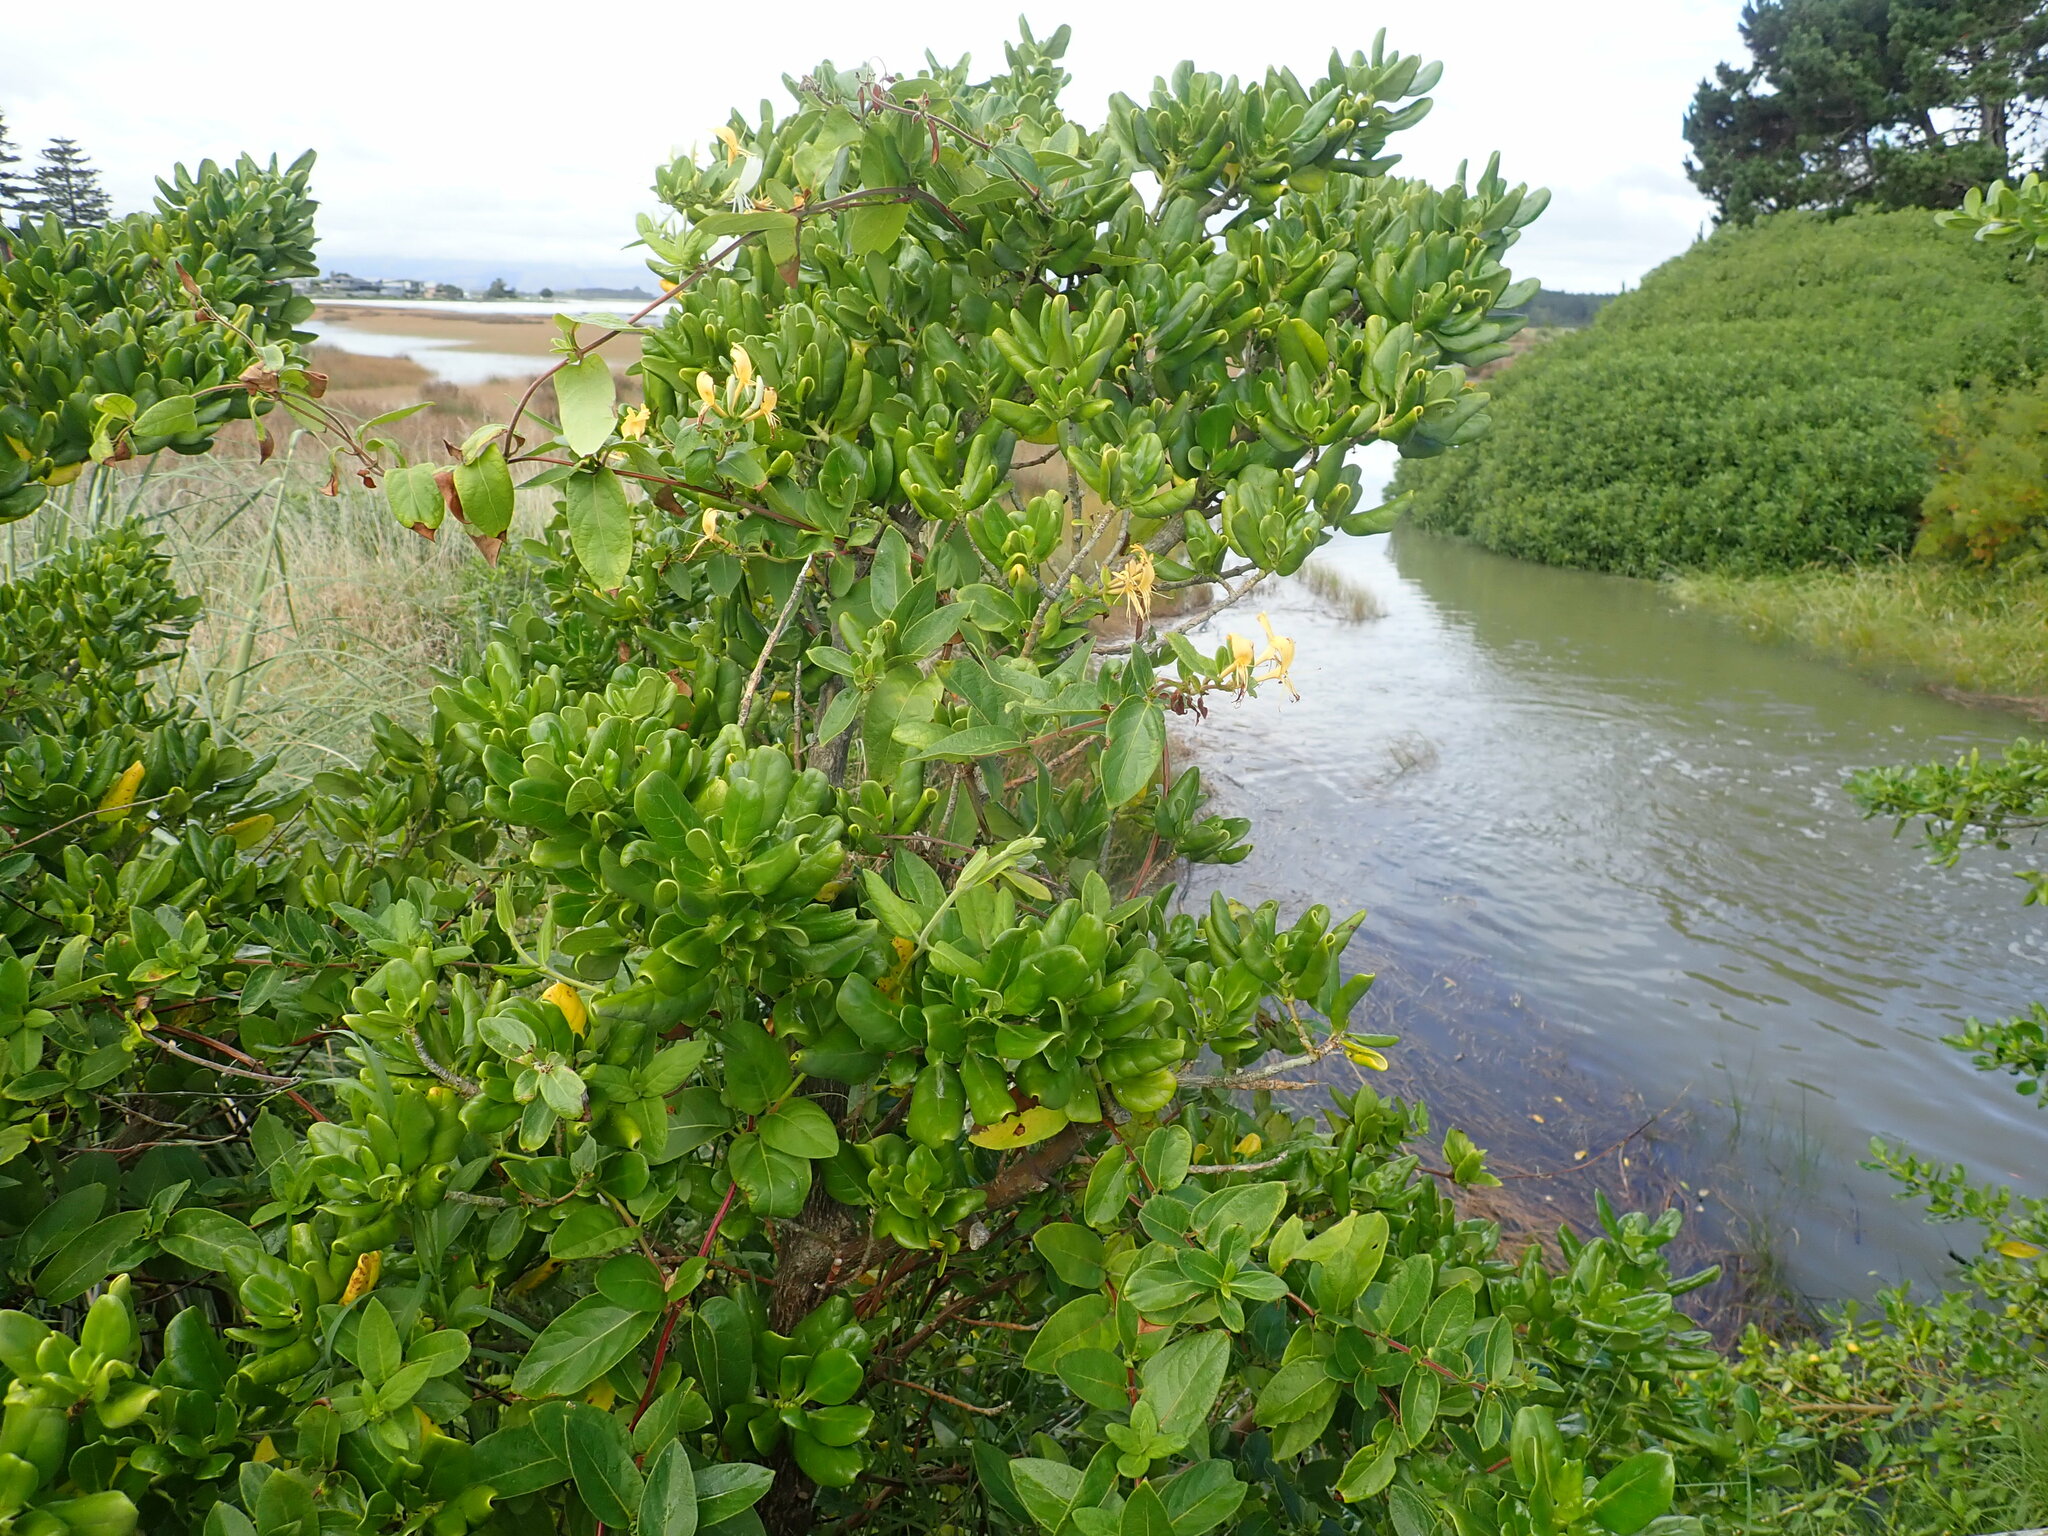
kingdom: Plantae
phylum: Tracheophyta
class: Magnoliopsida
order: Dipsacales
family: Caprifoliaceae
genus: Lonicera
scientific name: Lonicera japonica
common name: Japanese honeysuckle
